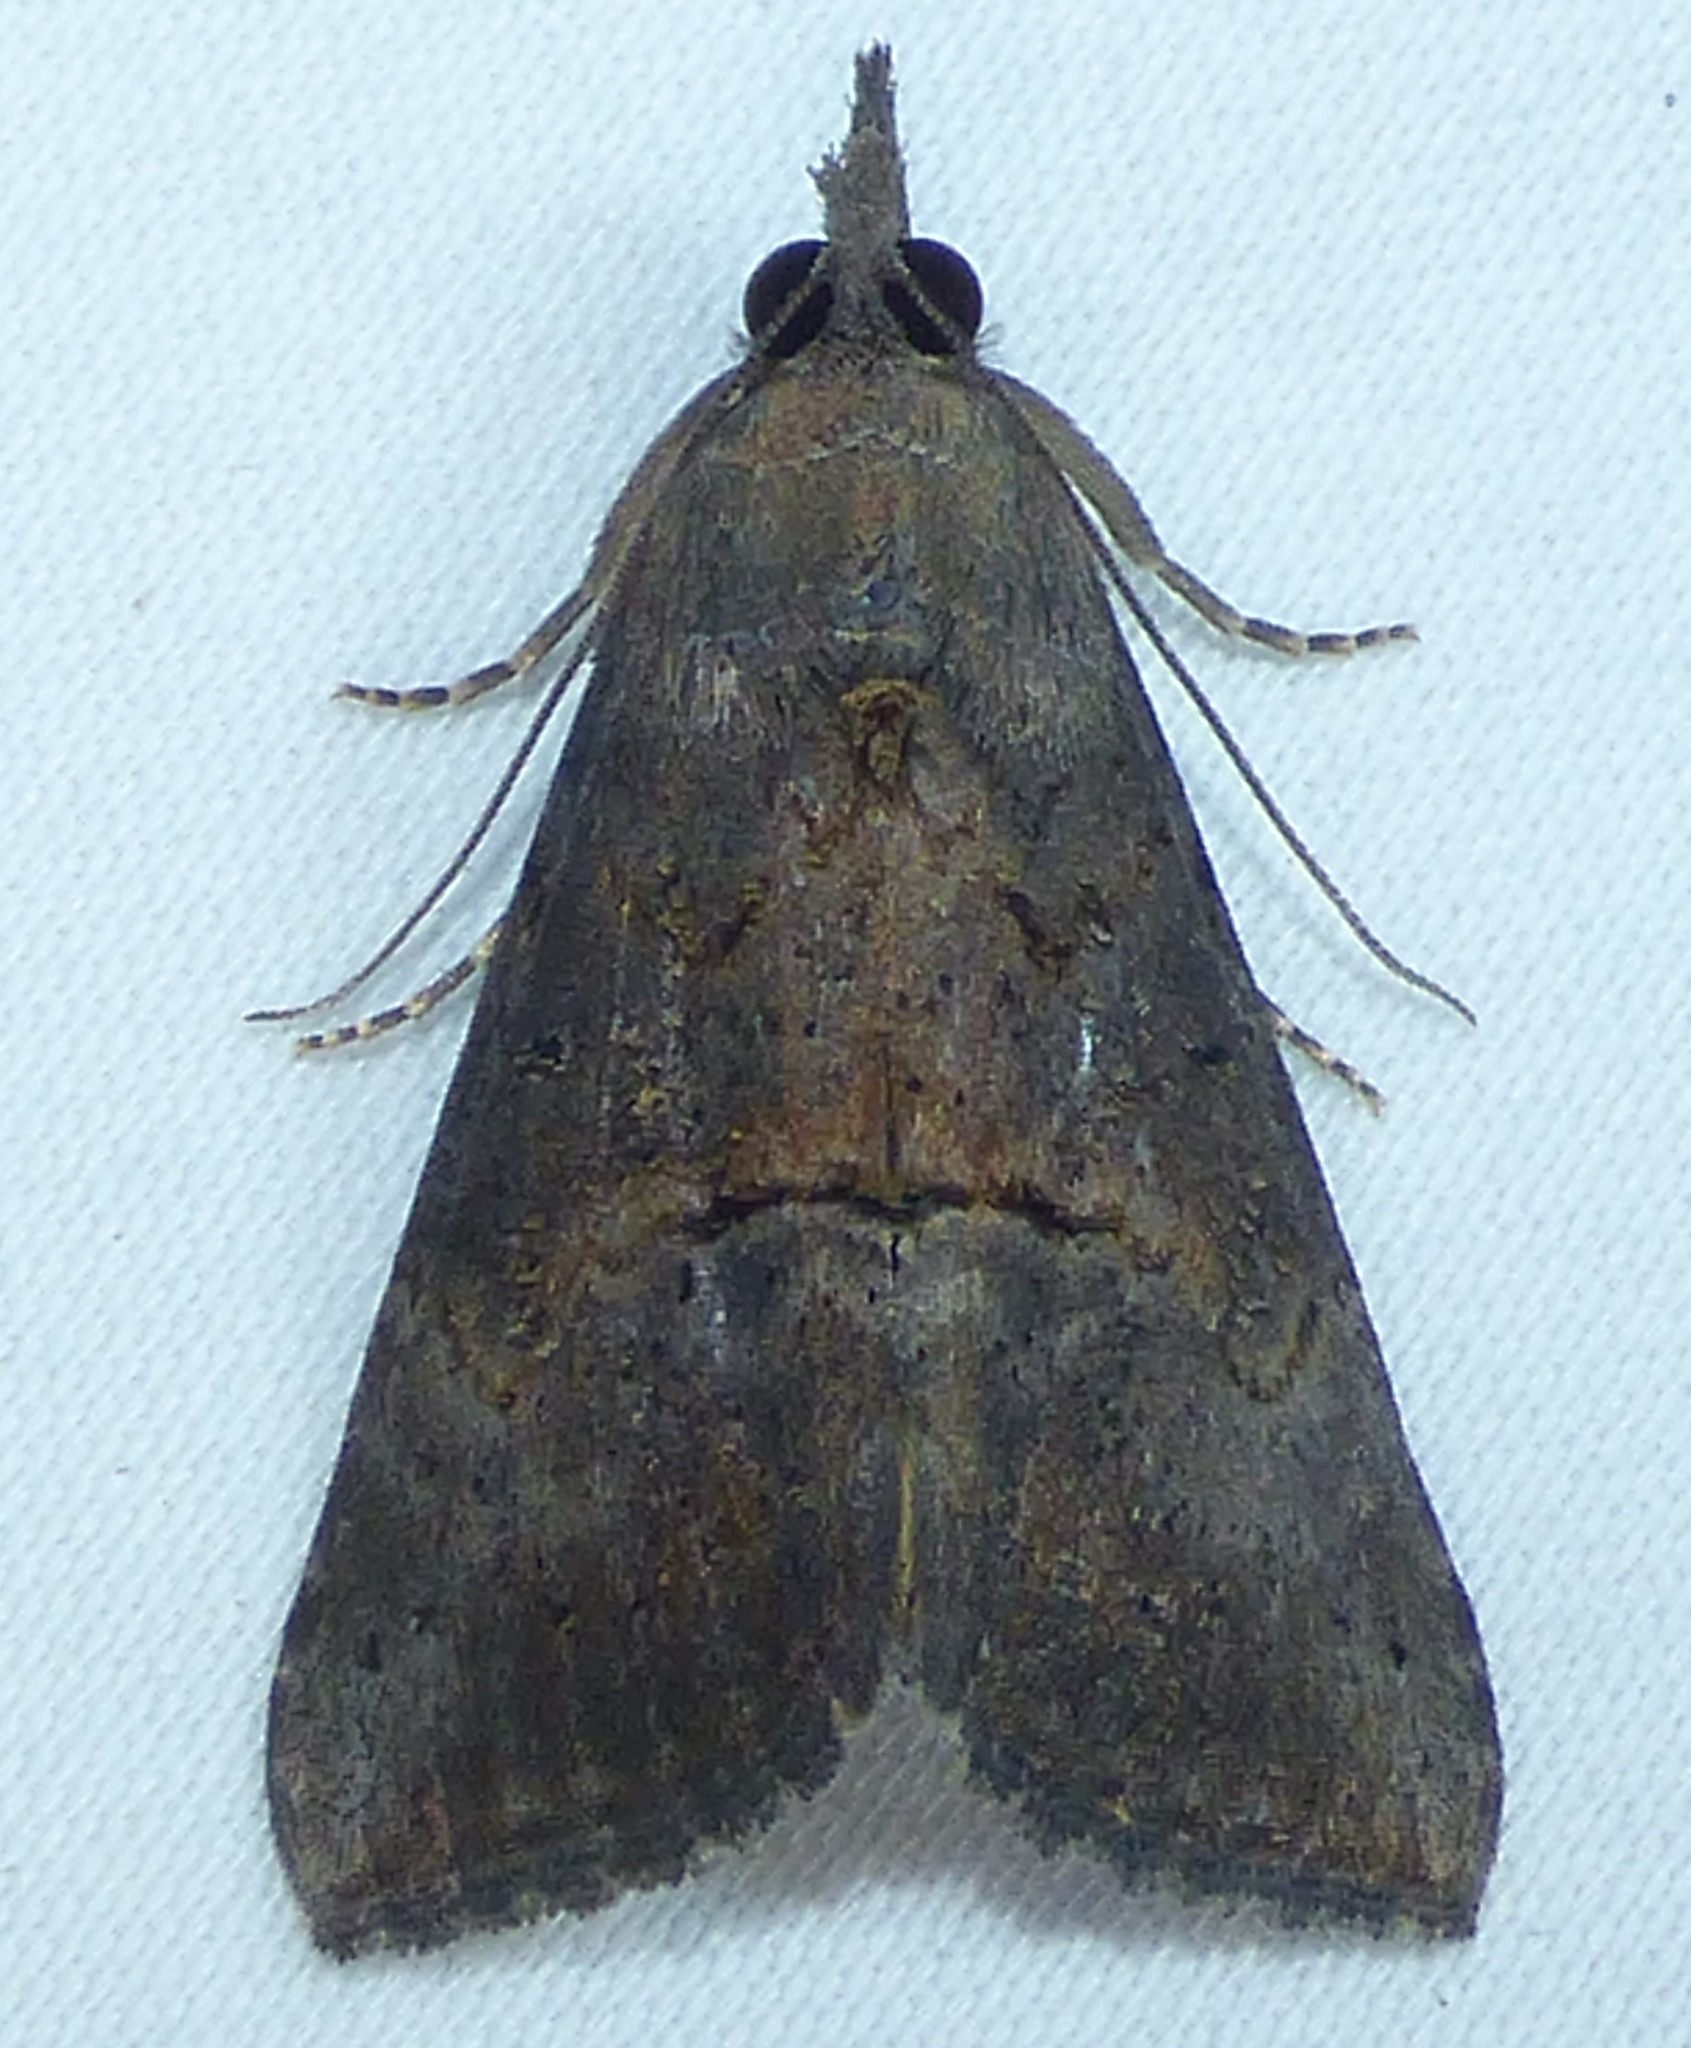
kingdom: Animalia
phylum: Arthropoda
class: Insecta
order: Lepidoptera
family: Erebidae
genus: Hypena
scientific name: Hypena scabra
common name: Green cloverworm
